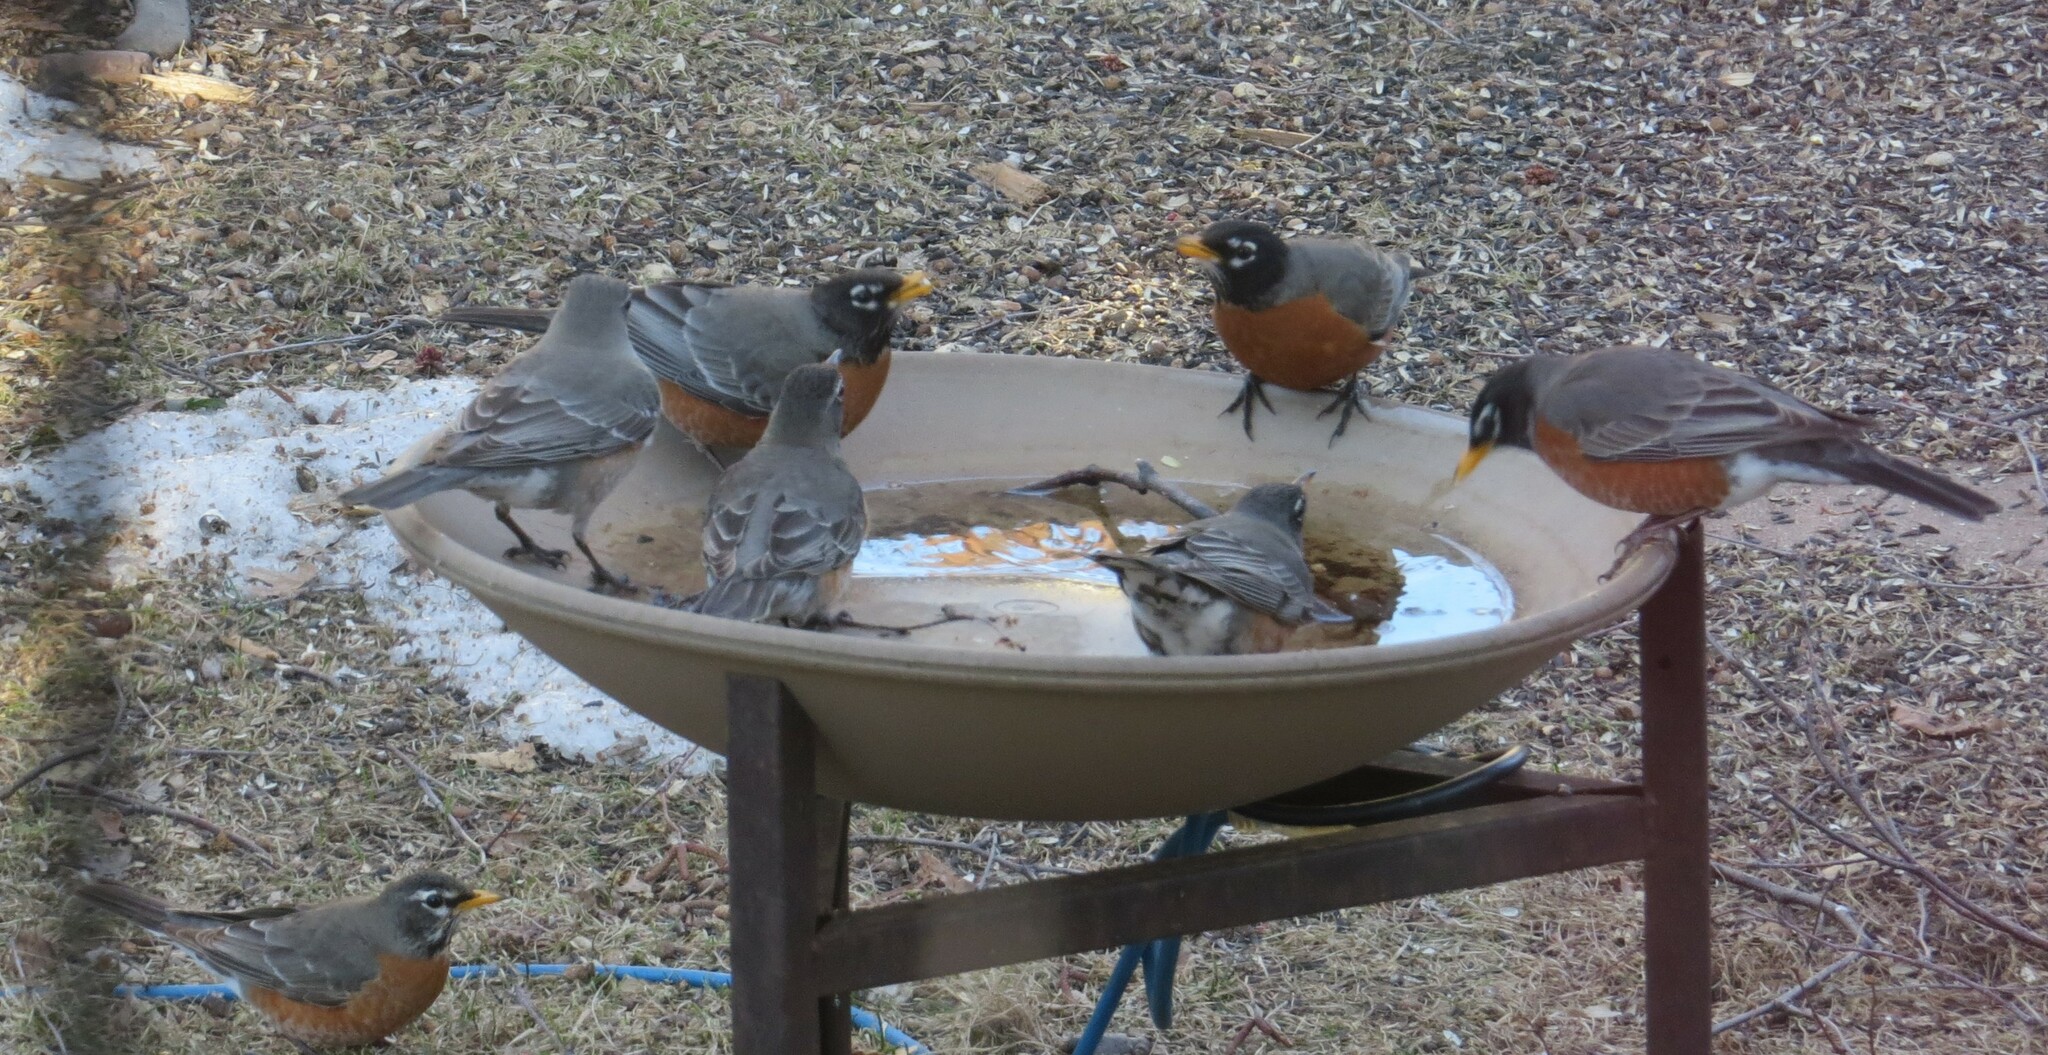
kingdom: Animalia
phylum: Chordata
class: Aves
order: Passeriformes
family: Turdidae
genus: Turdus
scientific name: Turdus migratorius
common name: American robin
